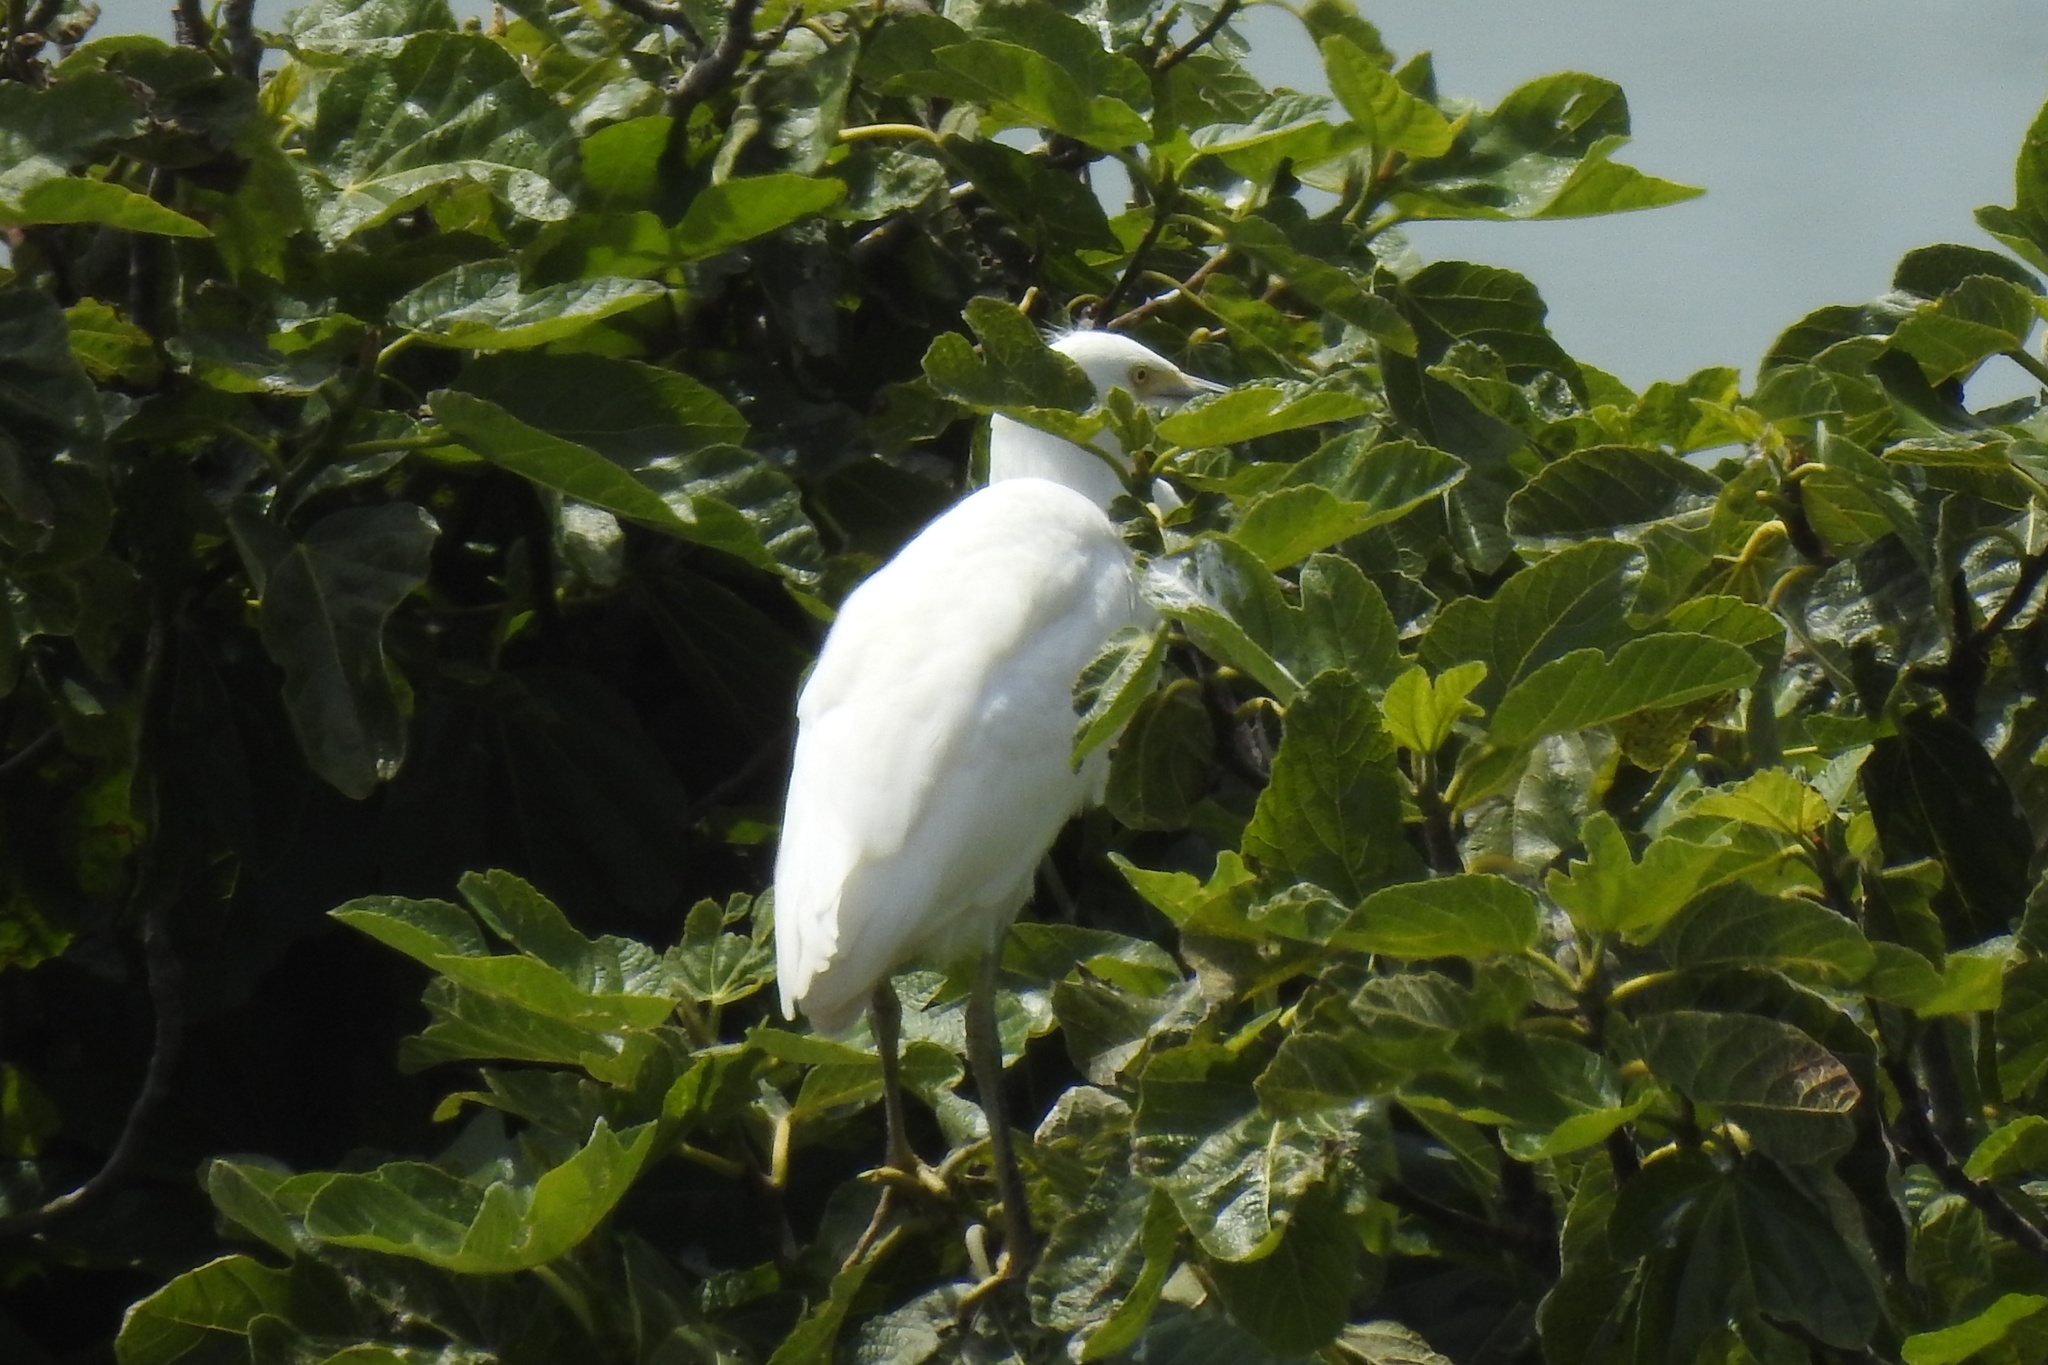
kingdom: Animalia
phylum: Chordata
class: Aves
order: Pelecaniformes
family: Ardeidae
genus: Egretta
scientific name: Egretta thula
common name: Snowy egret
